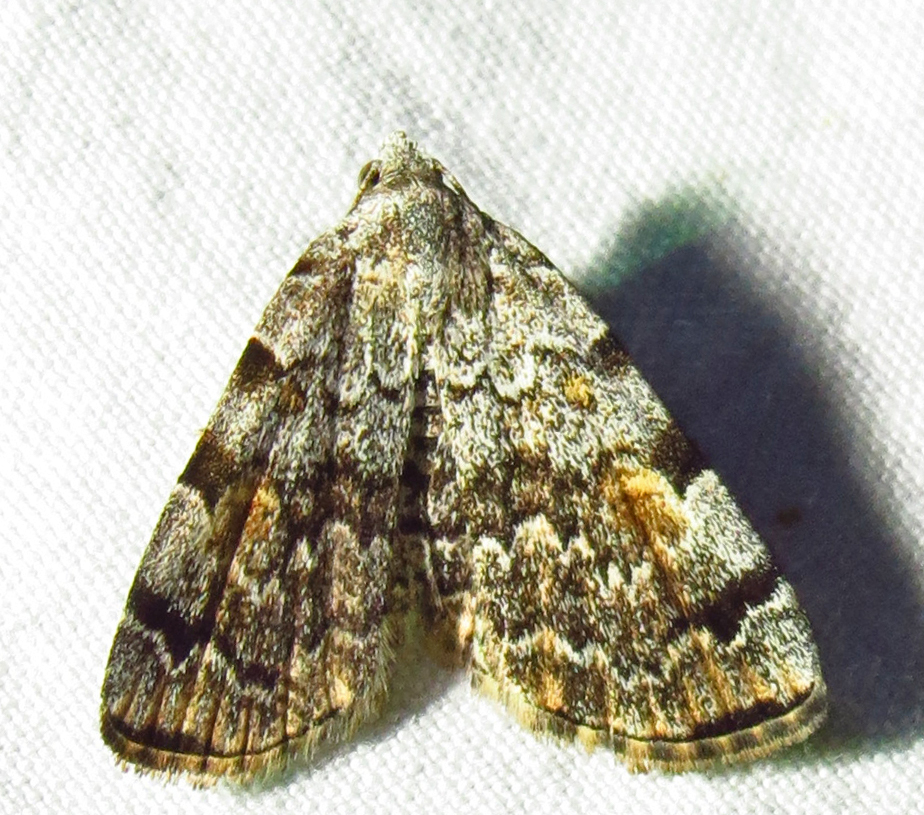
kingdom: Animalia
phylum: Arthropoda
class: Insecta
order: Lepidoptera
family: Erebidae
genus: Idia
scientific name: Idia americalis
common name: American idia moth
